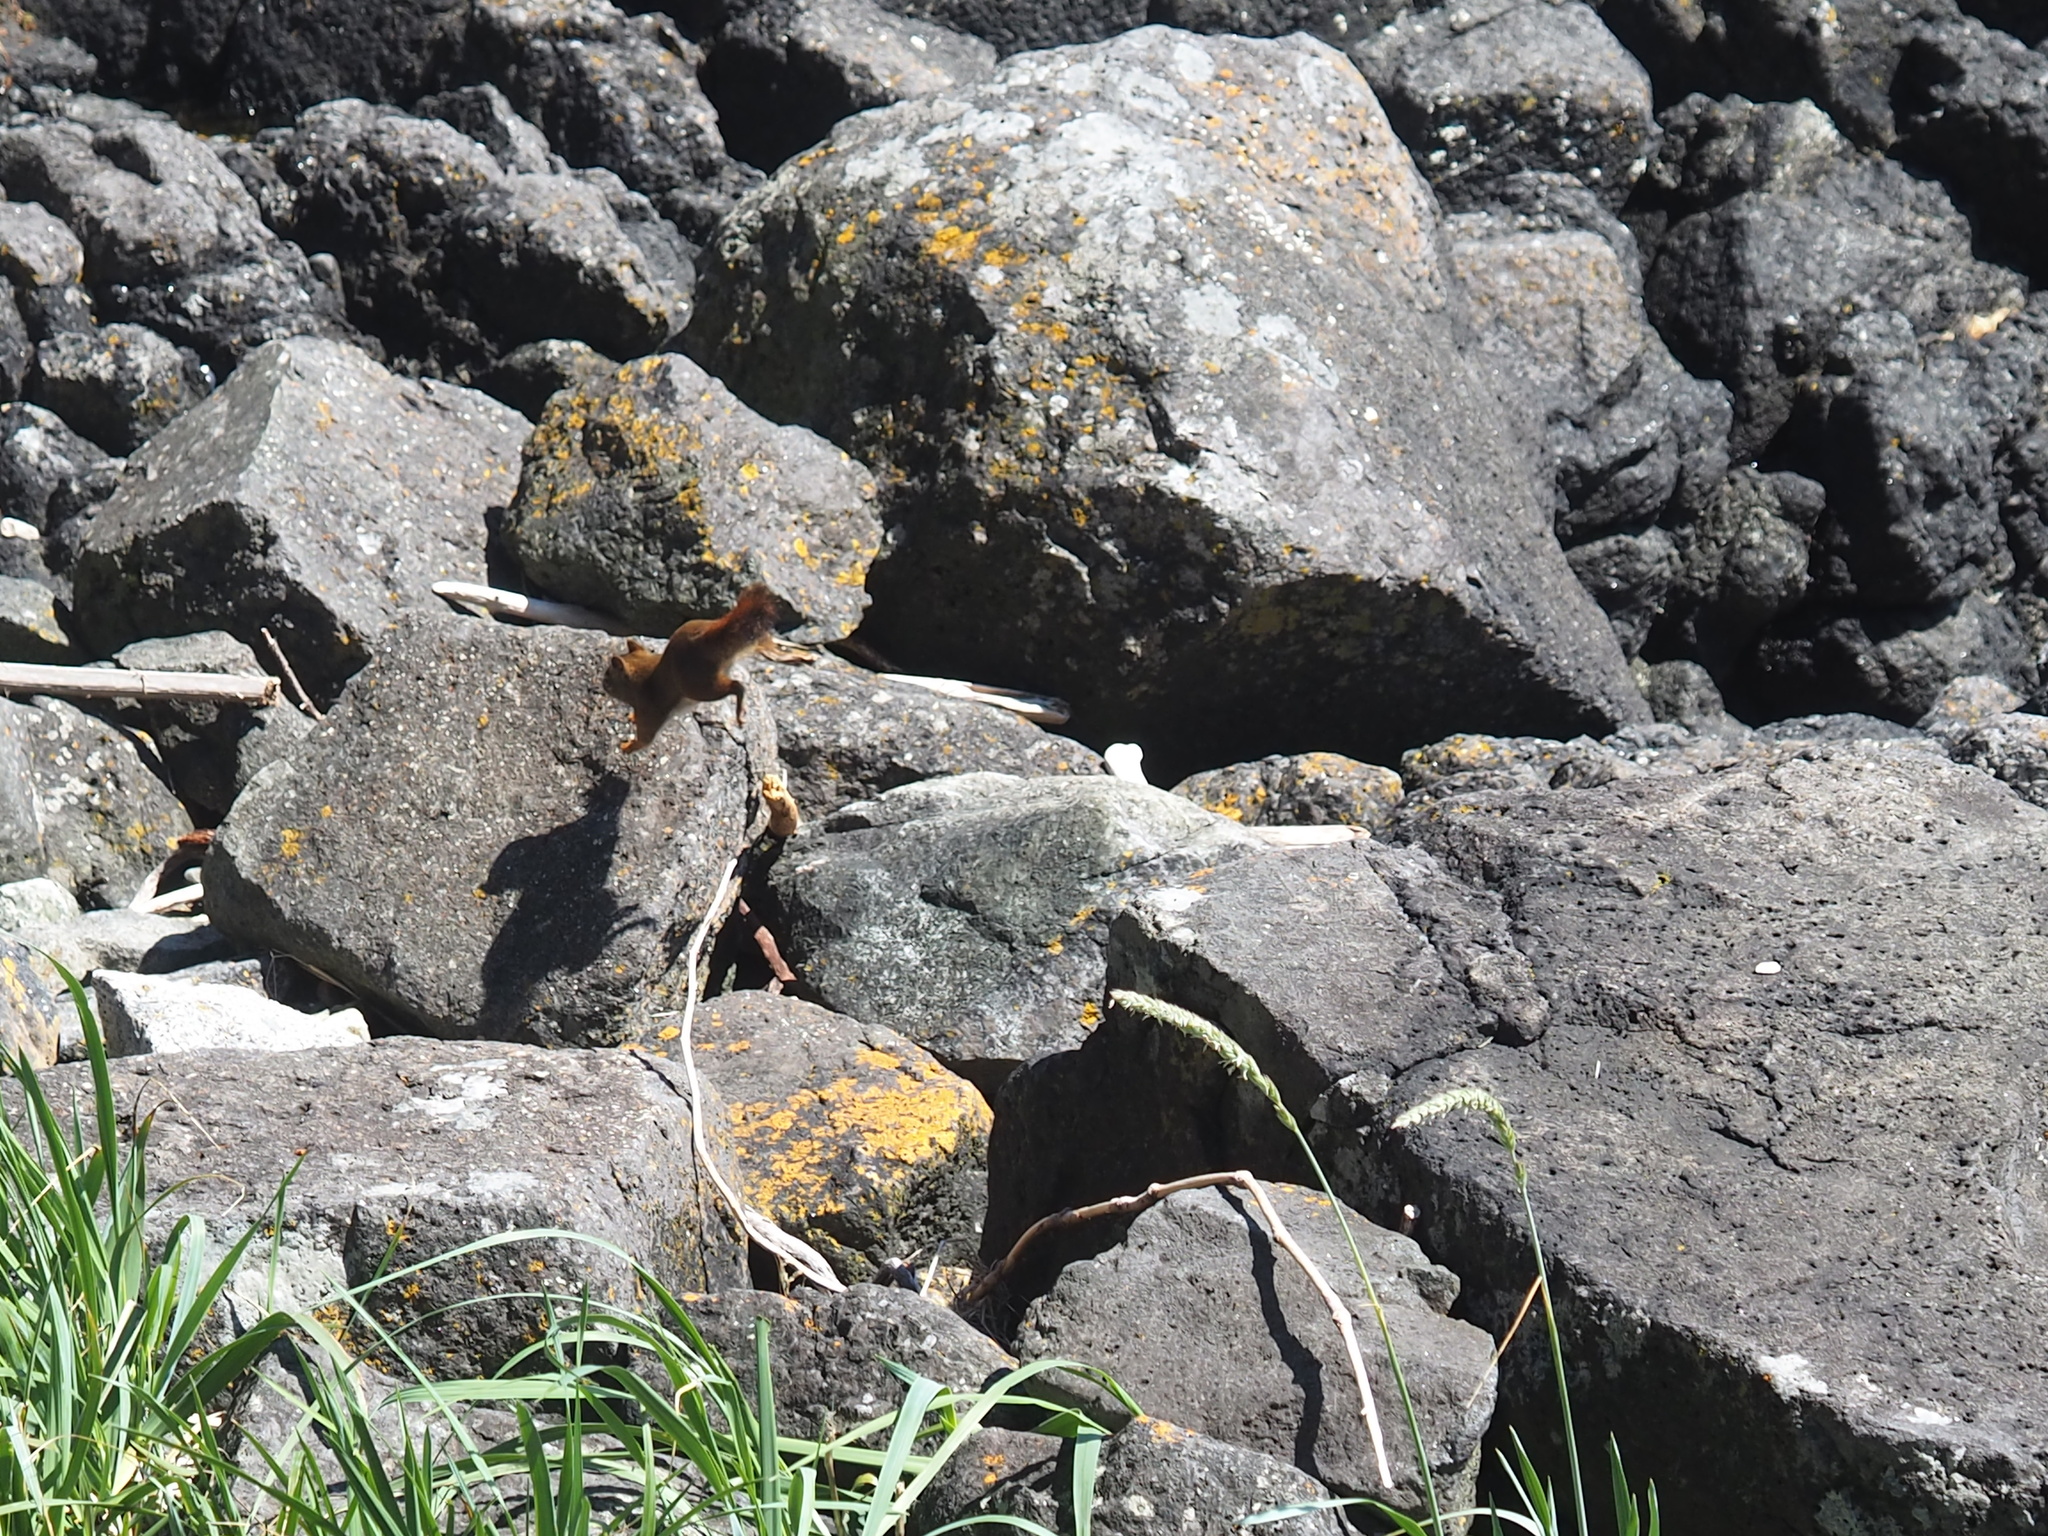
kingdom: Animalia
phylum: Chordata
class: Mammalia
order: Rodentia
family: Sciuridae
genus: Tamiasciurus
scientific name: Tamiasciurus hudsonicus
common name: Red squirrel
